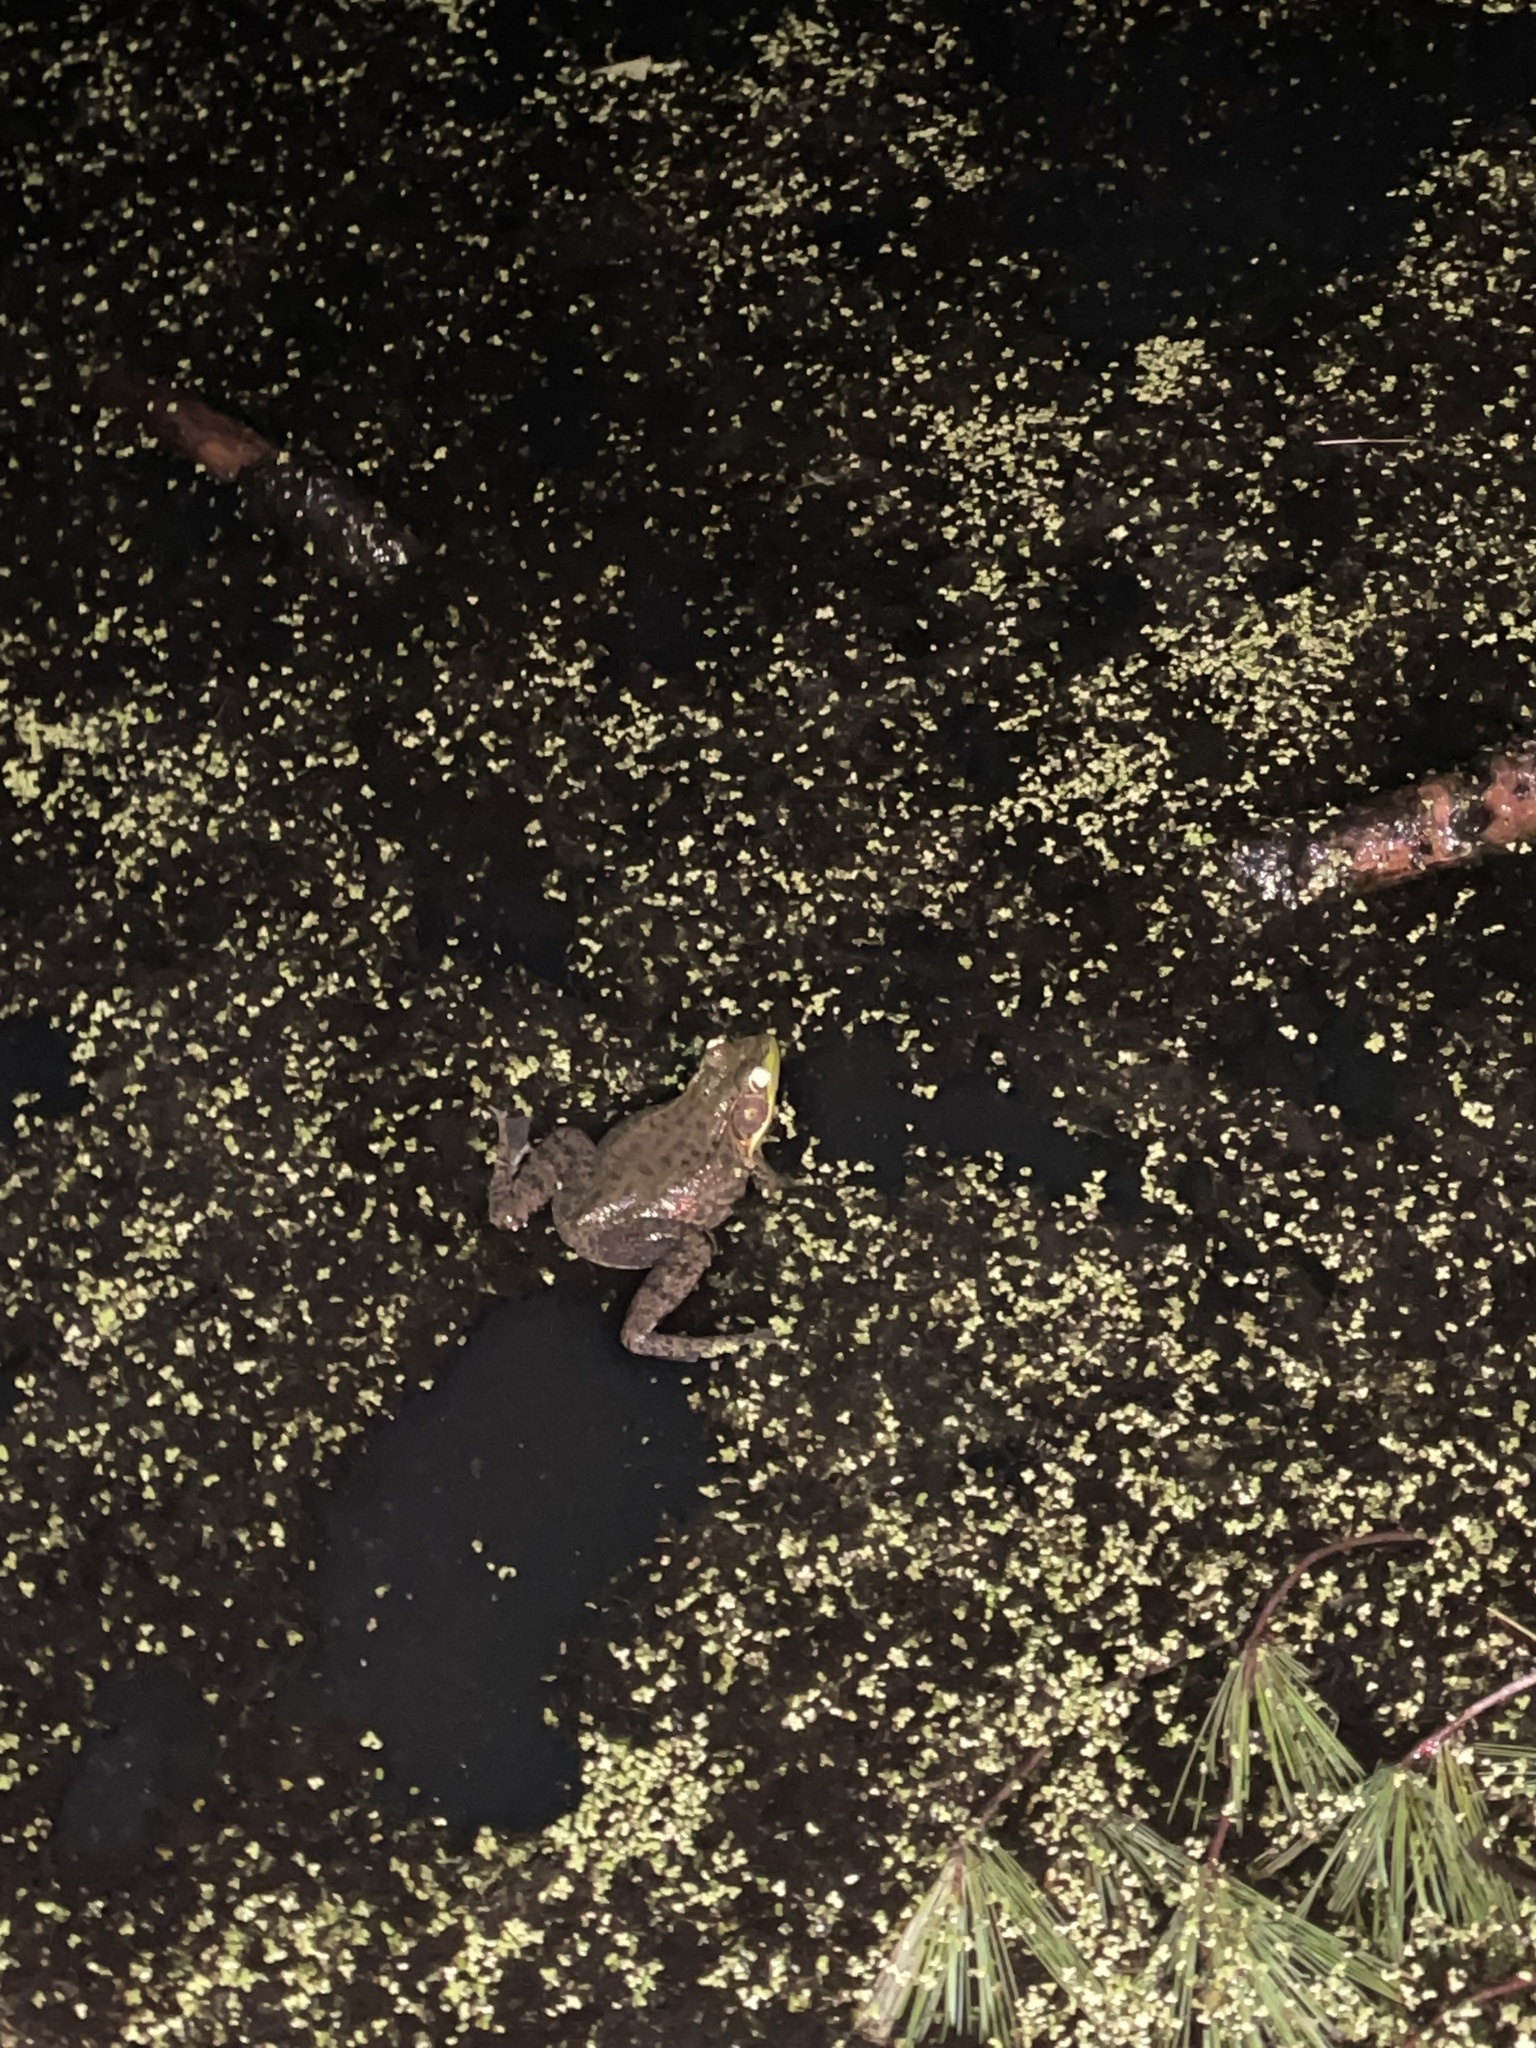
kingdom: Animalia
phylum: Chordata
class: Amphibia
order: Anura
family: Ranidae
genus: Lithobates
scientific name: Lithobates clamitans
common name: Green frog
